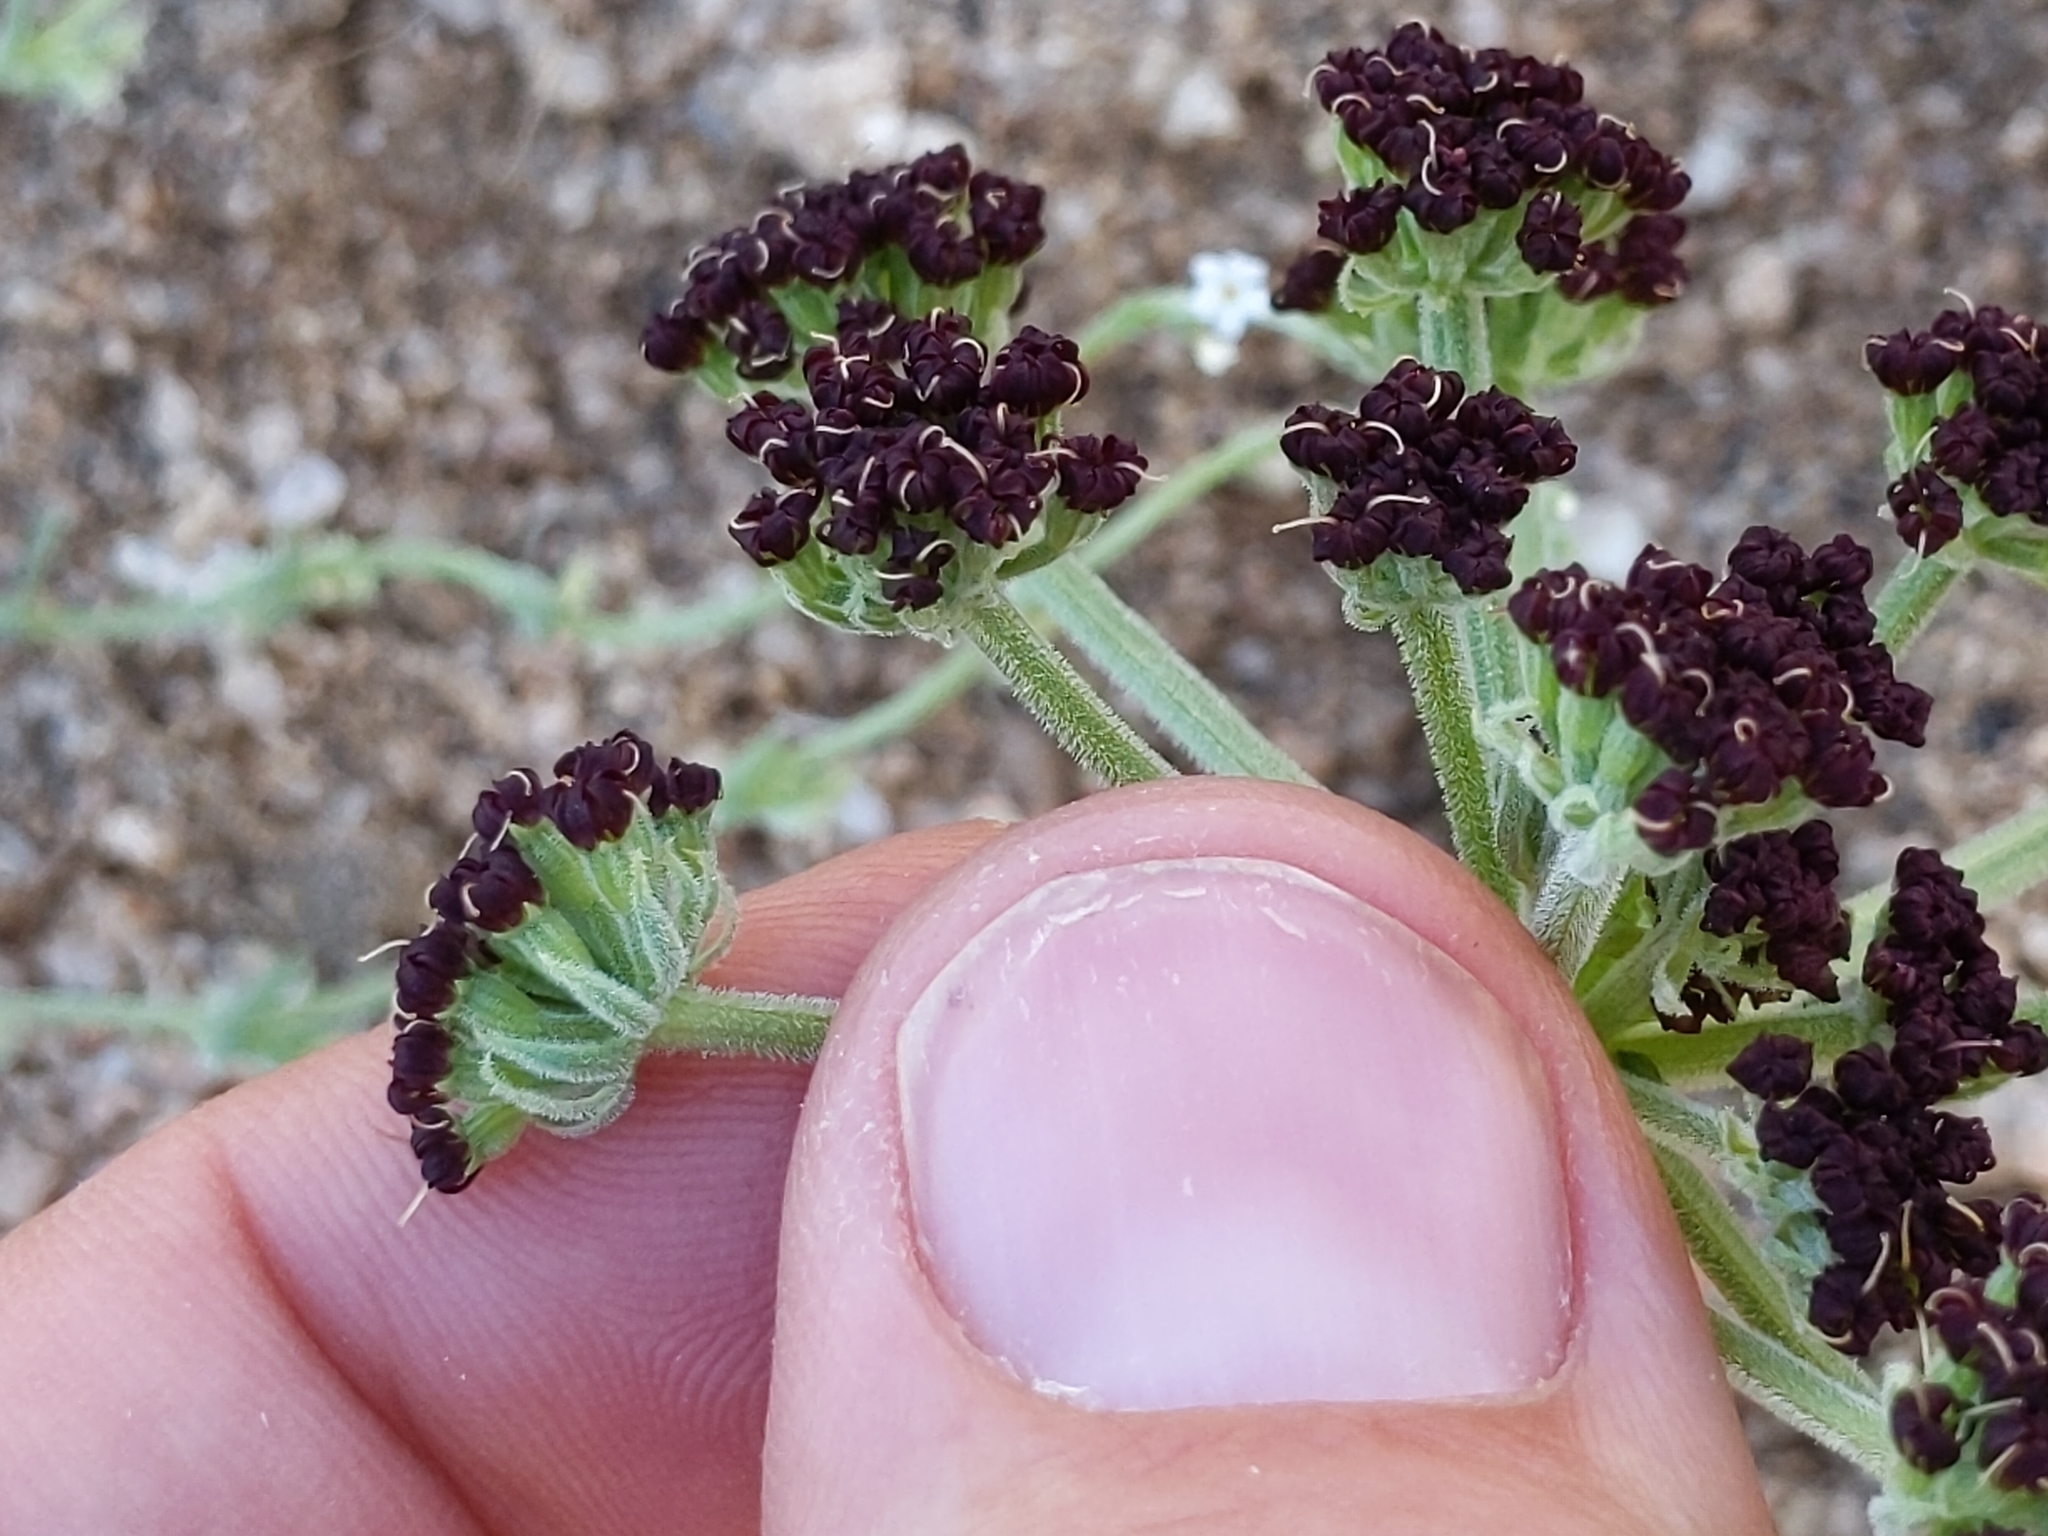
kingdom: Plantae
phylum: Tracheophyta
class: Magnoliopsida
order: Apiales
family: Apiaceae
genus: Lomatium
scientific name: Lomatium mohavense
